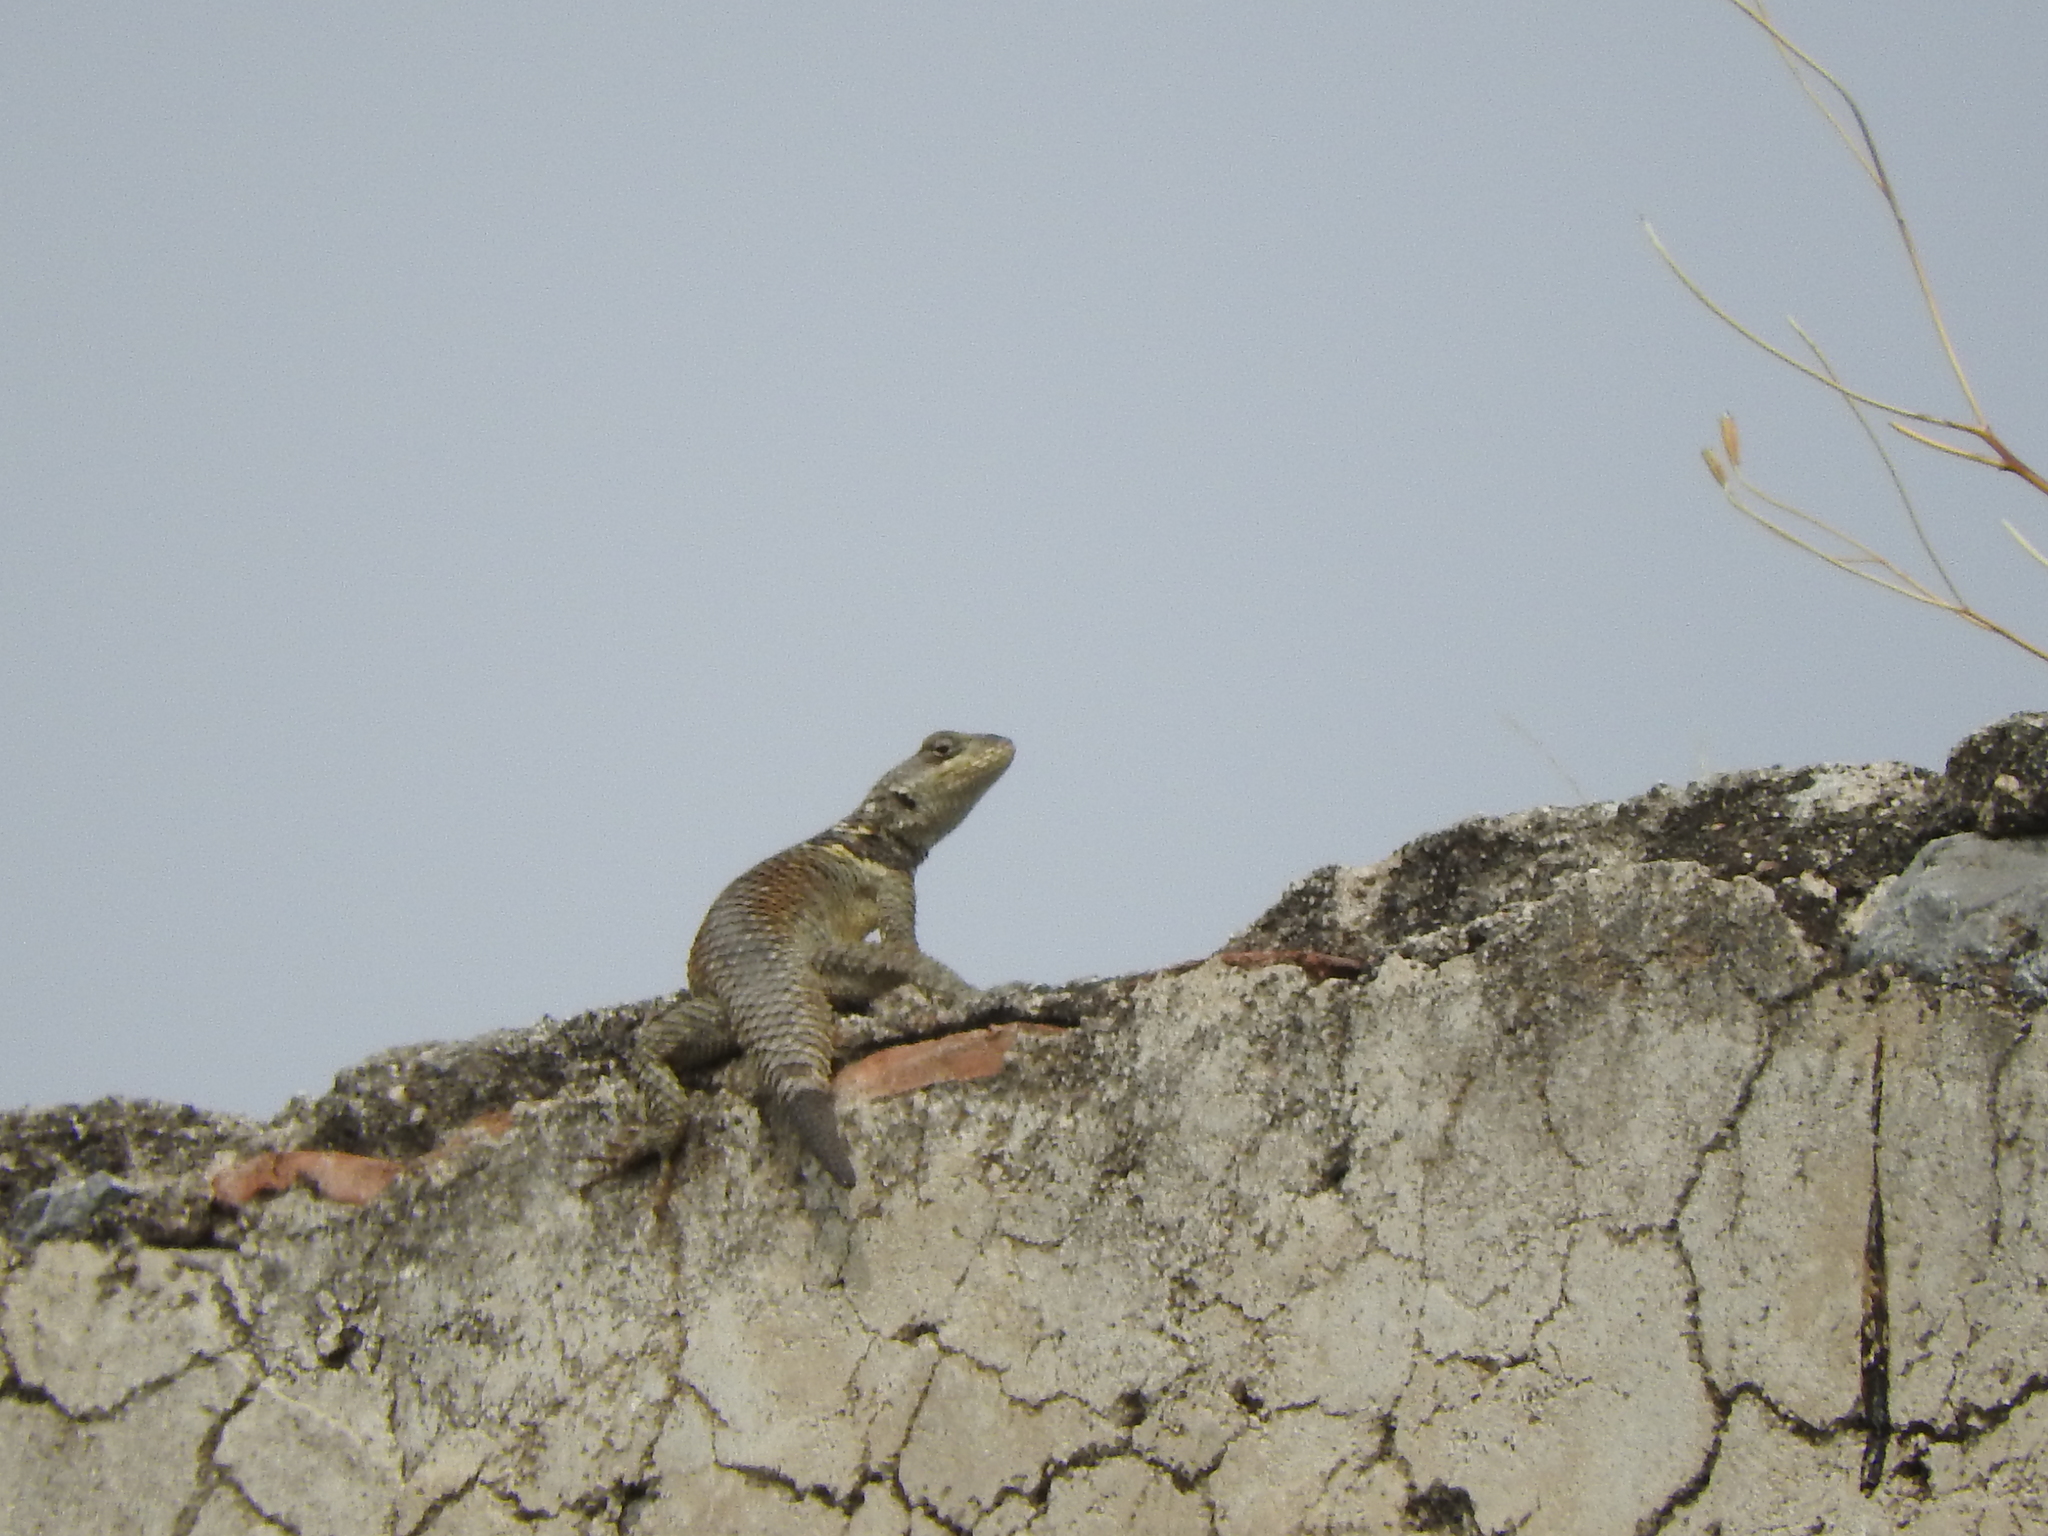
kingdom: Animalia
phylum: Chordata
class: Squamata
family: Phrynosomatidae
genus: Sceloporus
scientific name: Sceloporus torquatus
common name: Central plateau torquate lizard [melanogaster]
